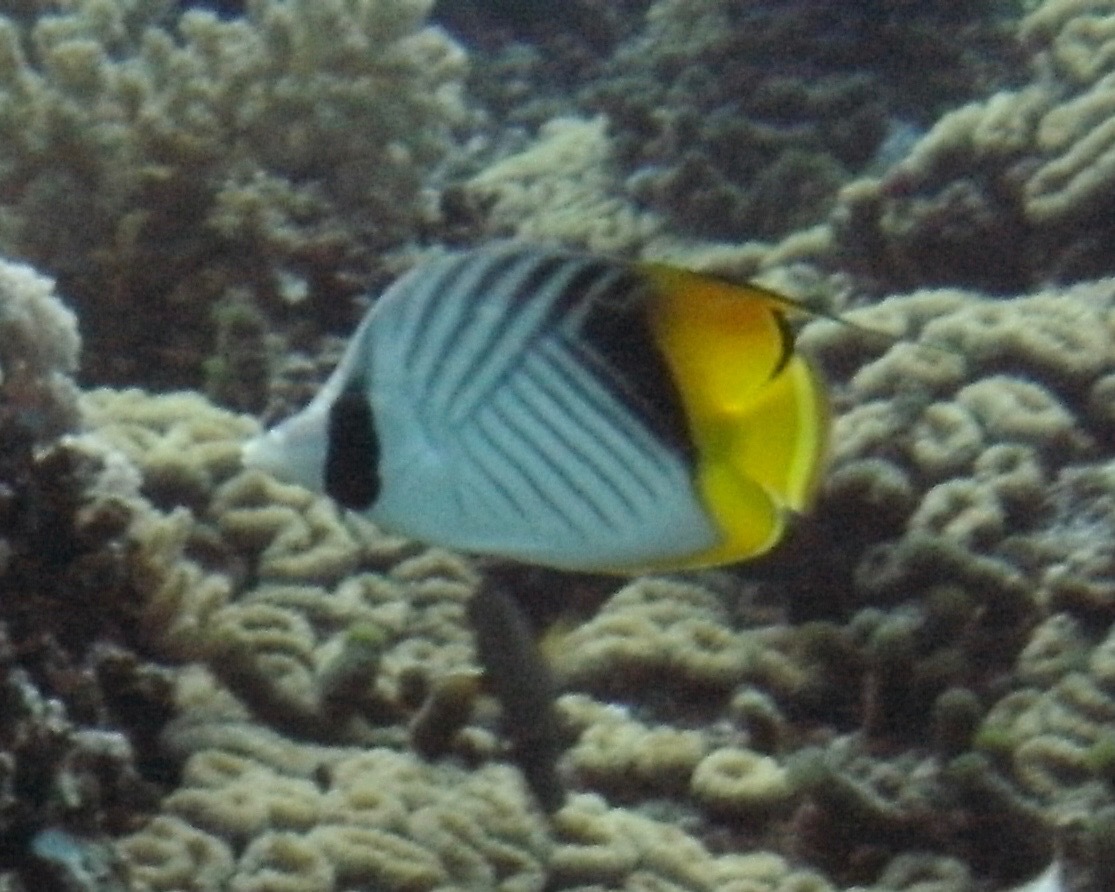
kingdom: Animalia
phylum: Chordata
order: Perciformes
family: Chaetodontidae
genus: Chaetodon
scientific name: Chaetodon auriga
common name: Threadfin butterflyfish
